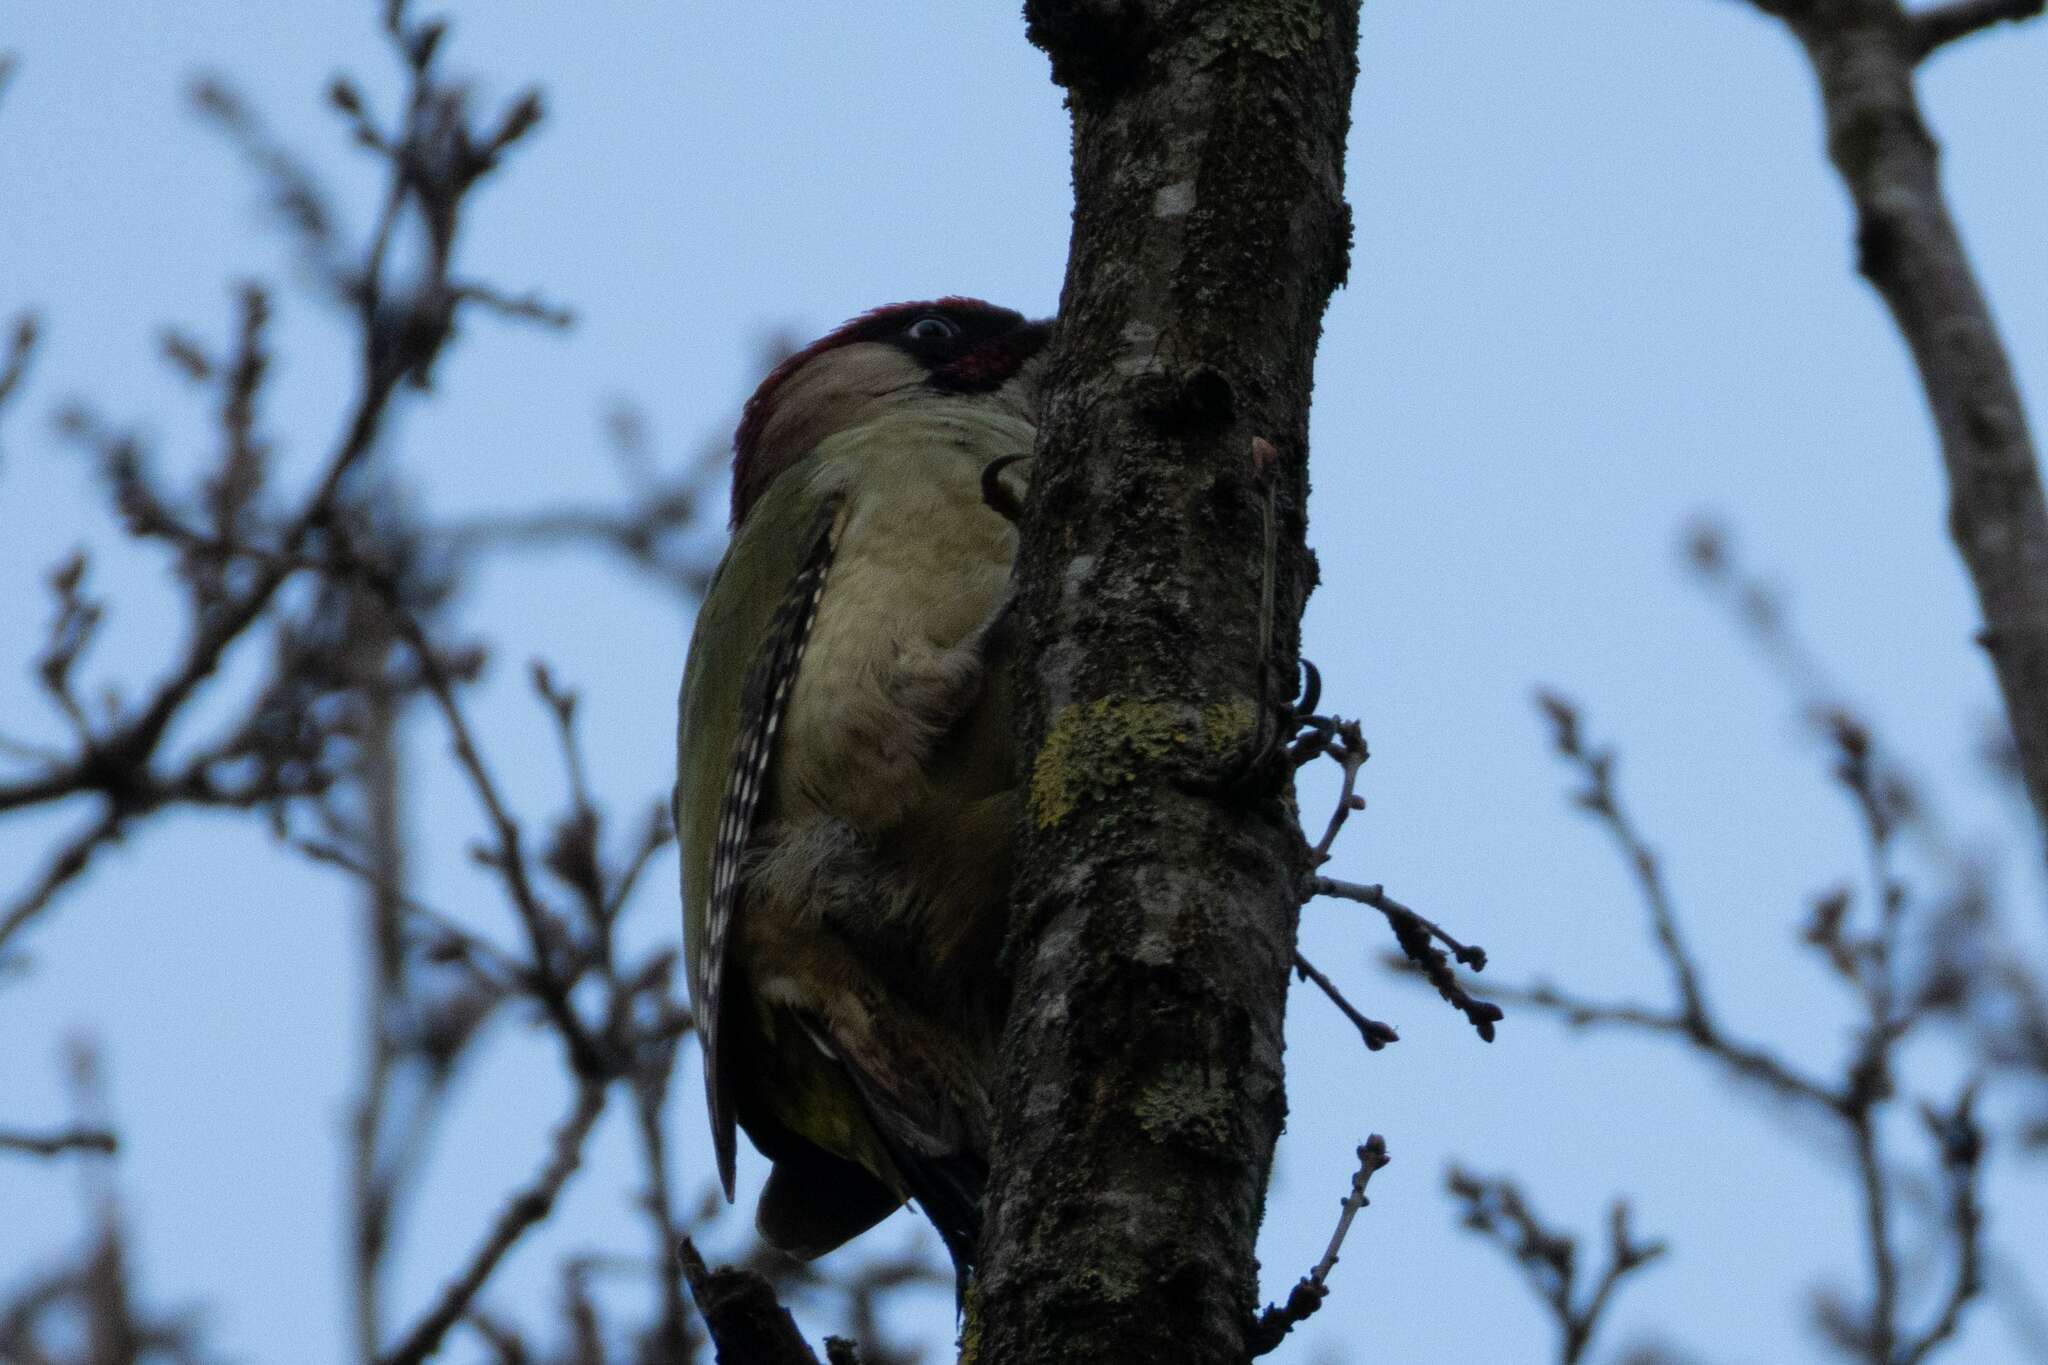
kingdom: Animalia
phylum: Chordata
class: Aves
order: Piciformes
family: Picidae
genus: Picus
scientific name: Picus viridis
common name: European green woodpecker
